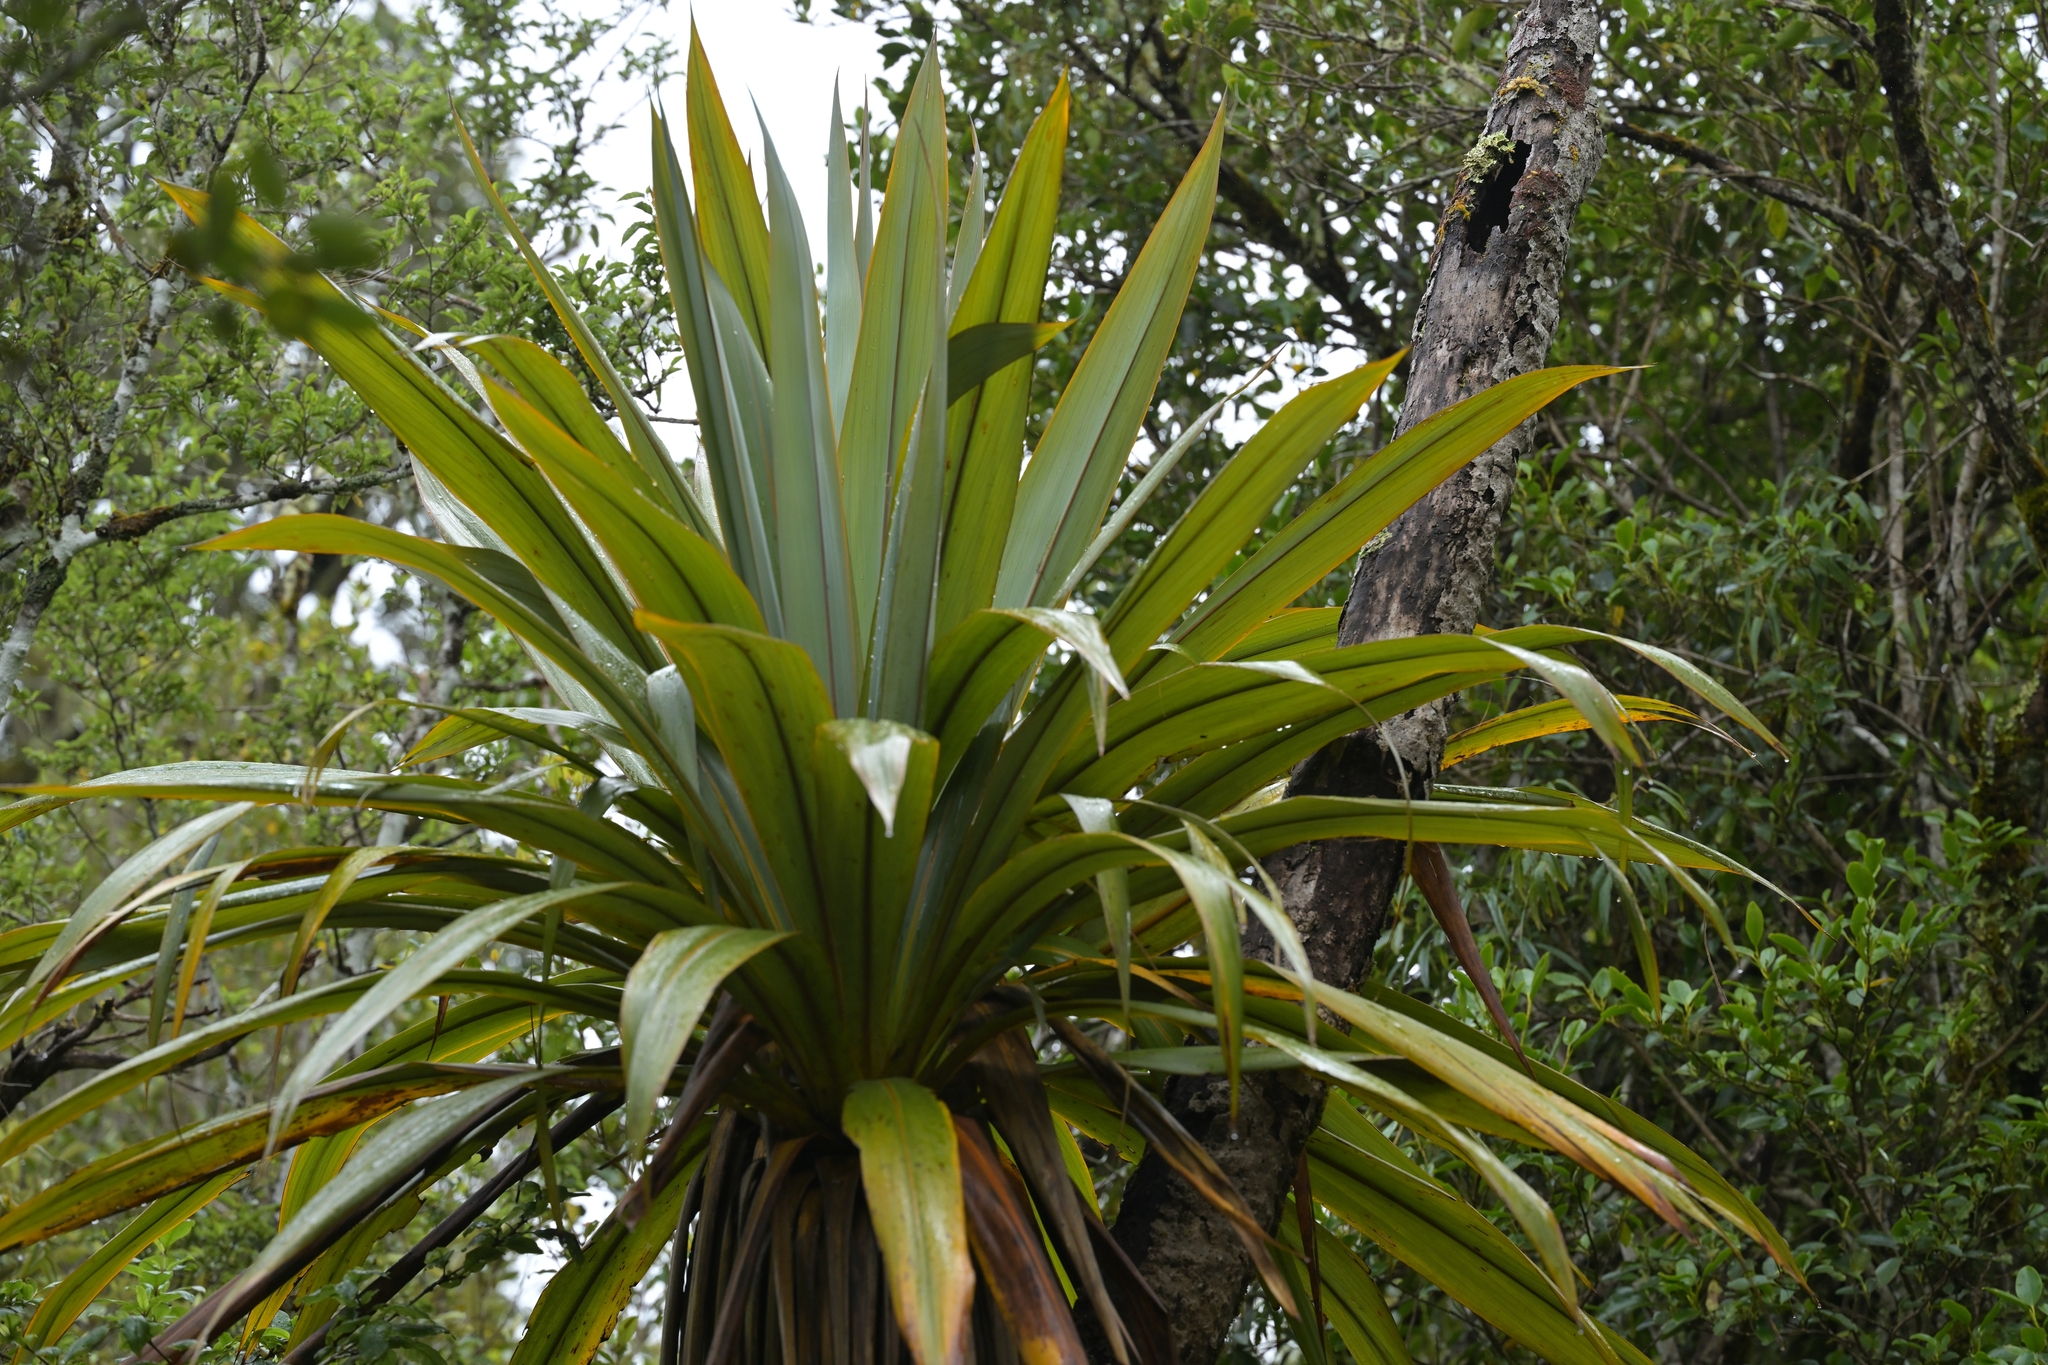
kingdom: Plantae
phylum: Tracheophyta
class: Liliopsida
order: Asparagales
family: Asparagaceae
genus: Cordyline
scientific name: Cordyline indivisa
